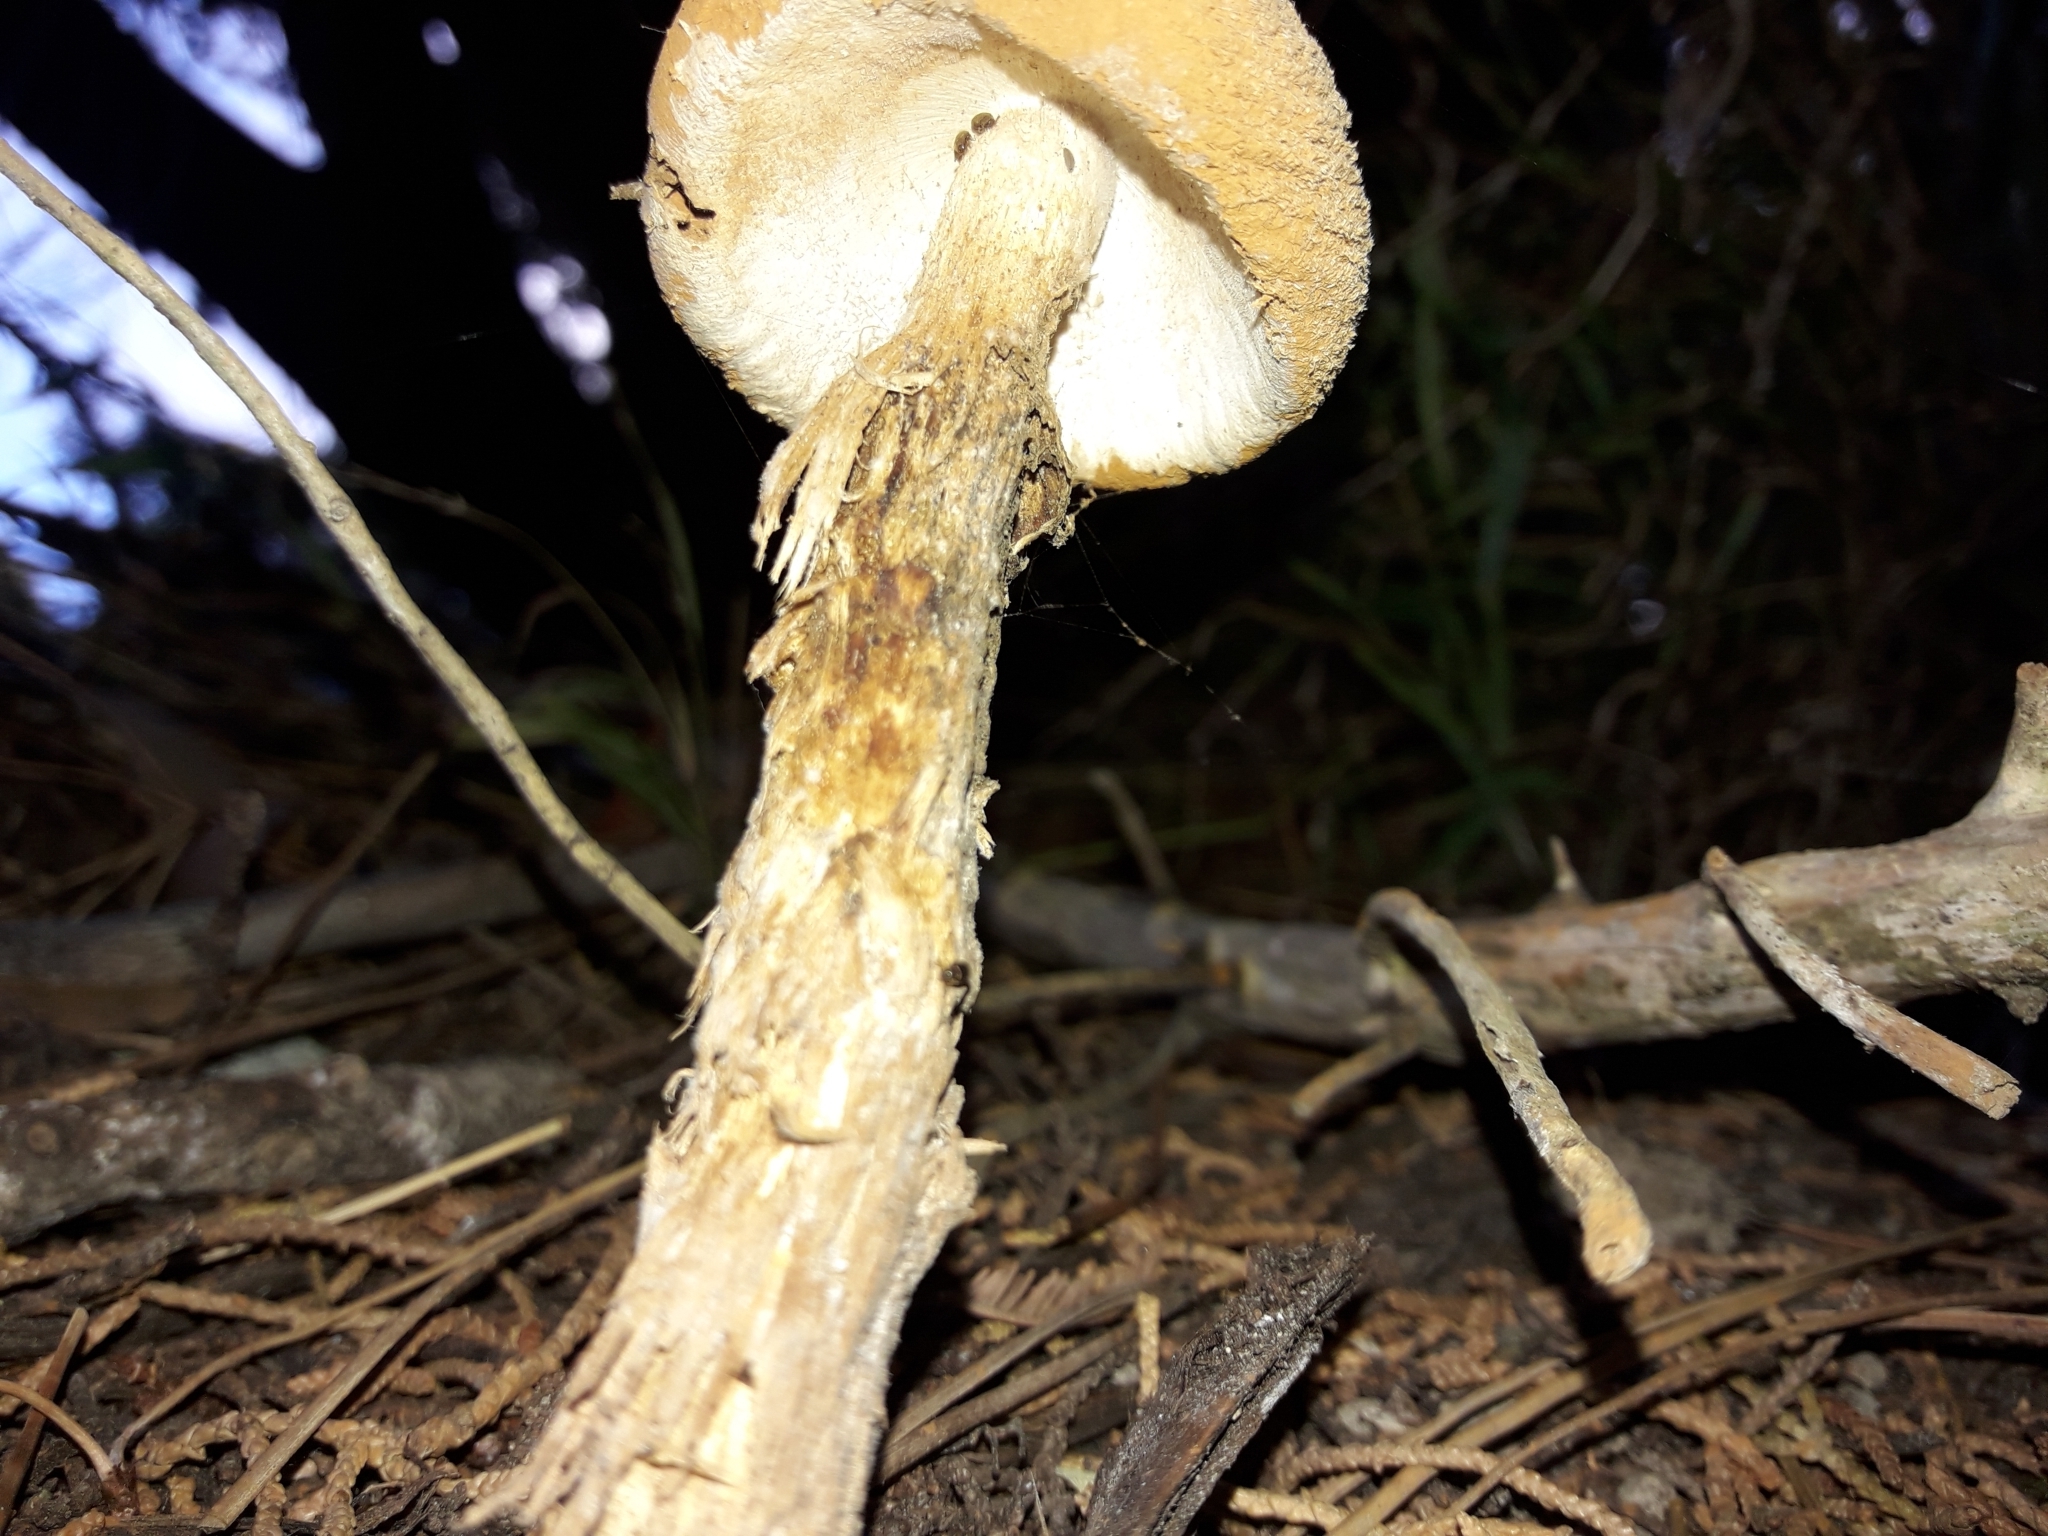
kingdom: Fungi
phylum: Basidiomycota
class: Agaricomycetes
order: Agaricales
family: Agaricaceae
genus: Battarrea
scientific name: Battarrea phalloides
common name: Sandy stiltball
